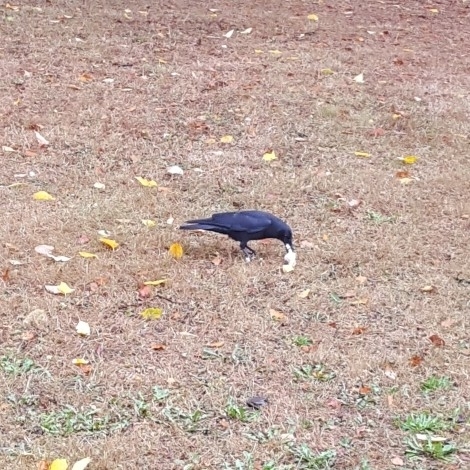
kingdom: Animalia
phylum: Chordata
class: Aves
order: Passeriformes
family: Corvidae
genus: Corvus
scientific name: Corvus brachyrhynchos
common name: American crow
